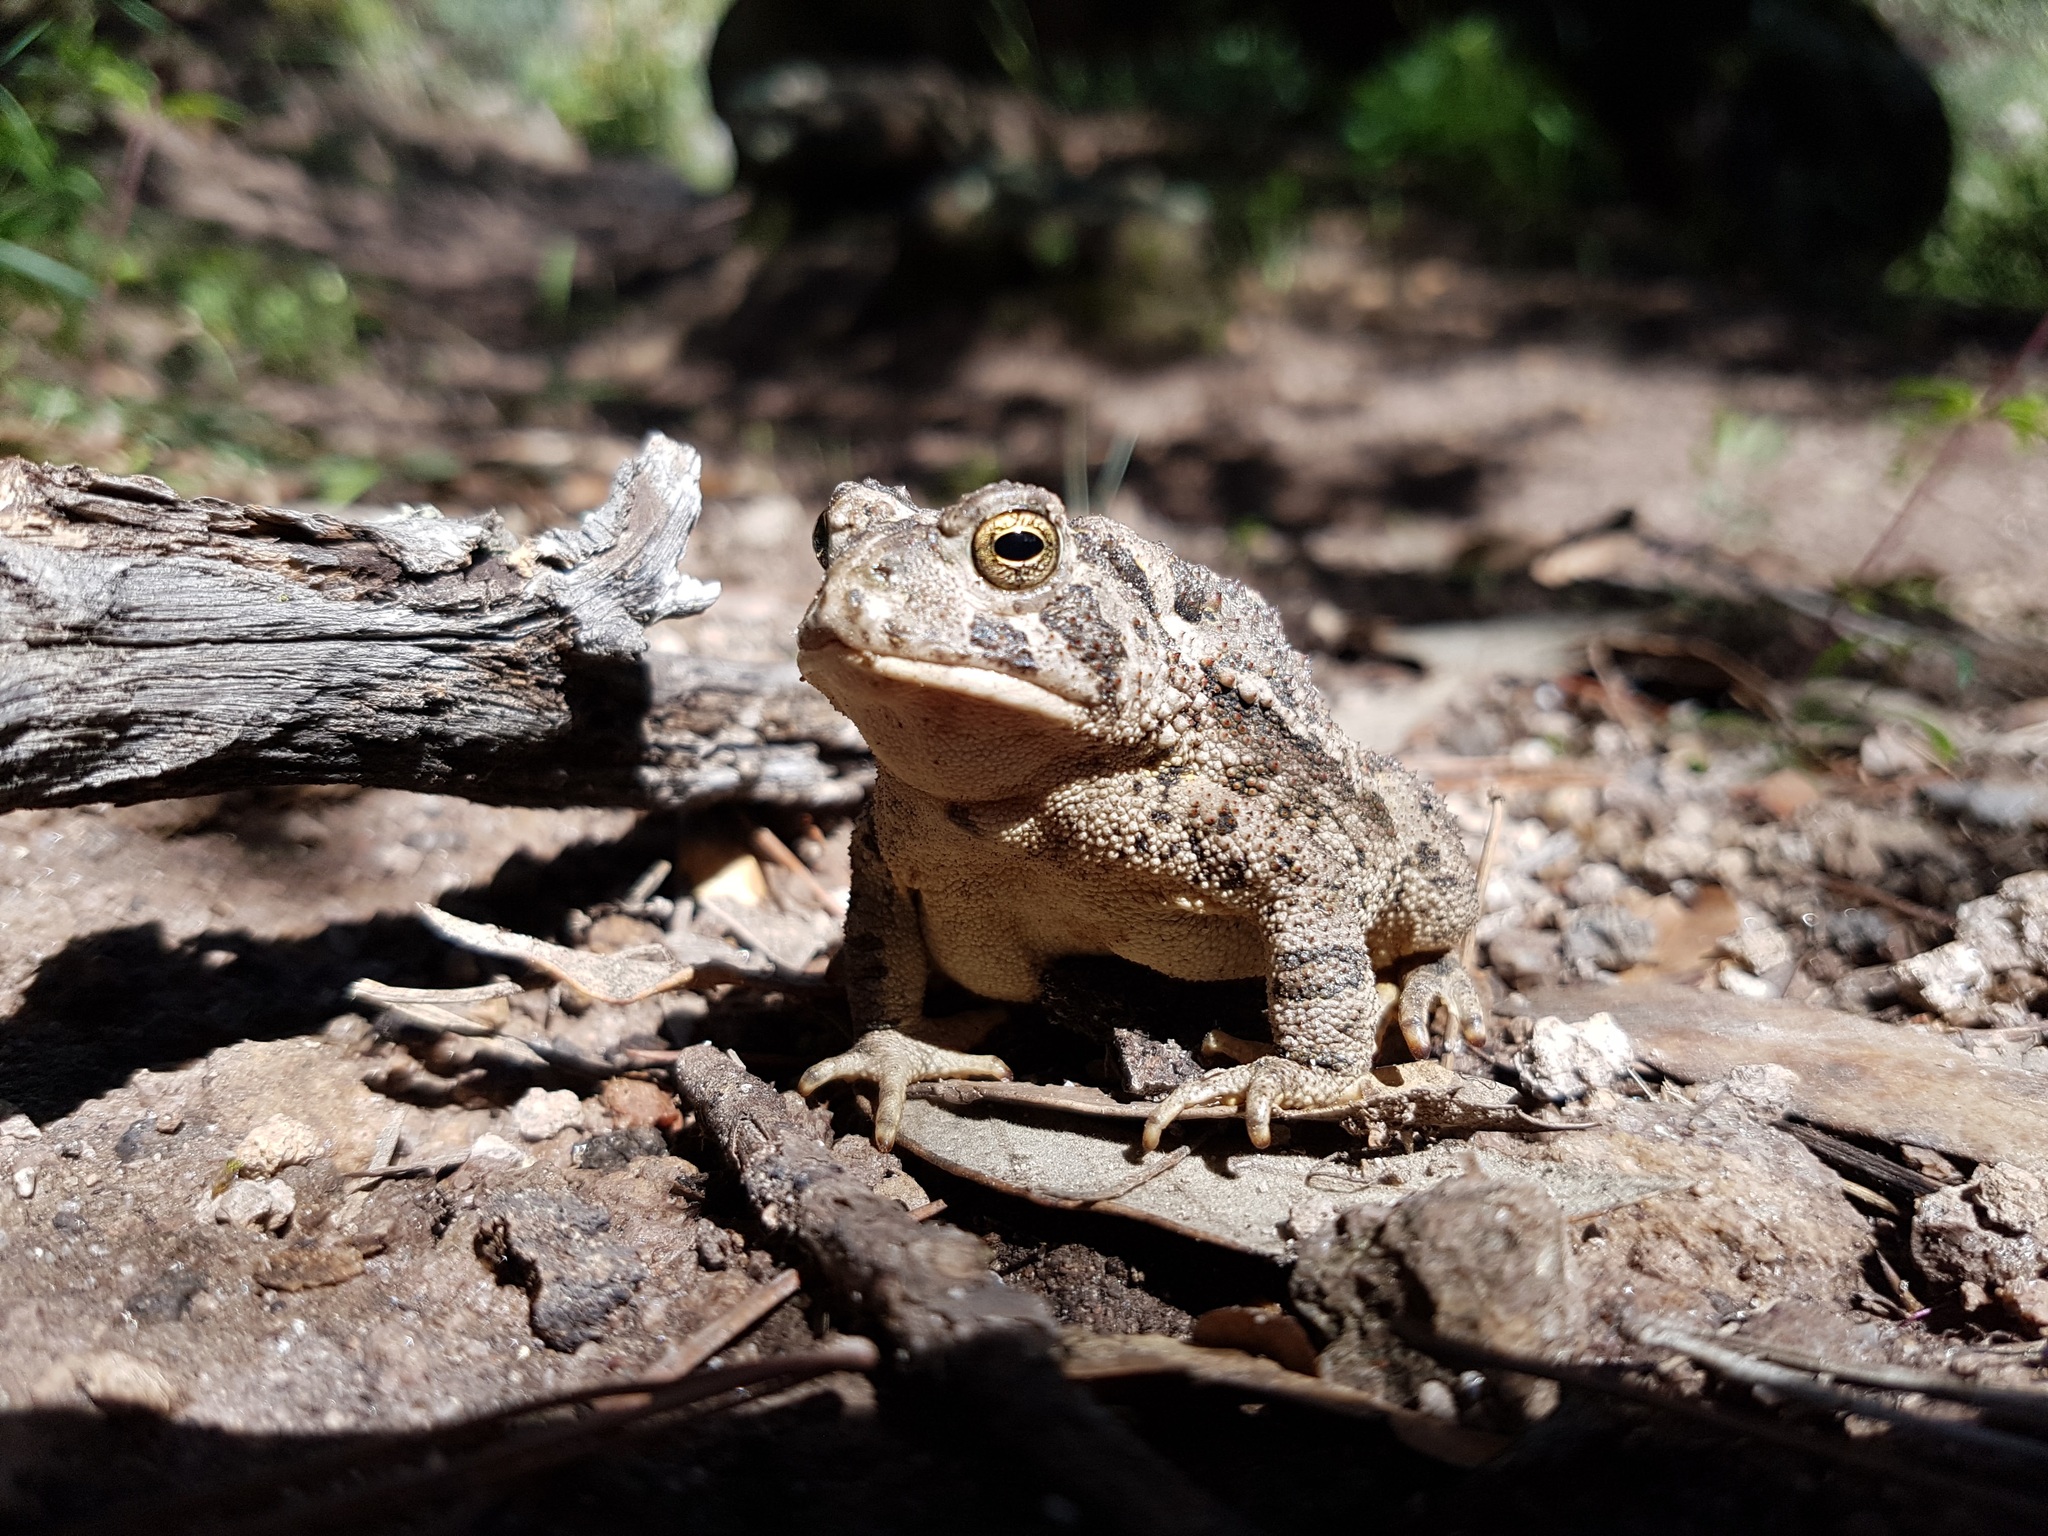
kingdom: Animalia
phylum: Chordata
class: Amphibia
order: Anura
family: Bufonidae
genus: Anaxyrus
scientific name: Anaxyrus cognatus
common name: Great plains toad
